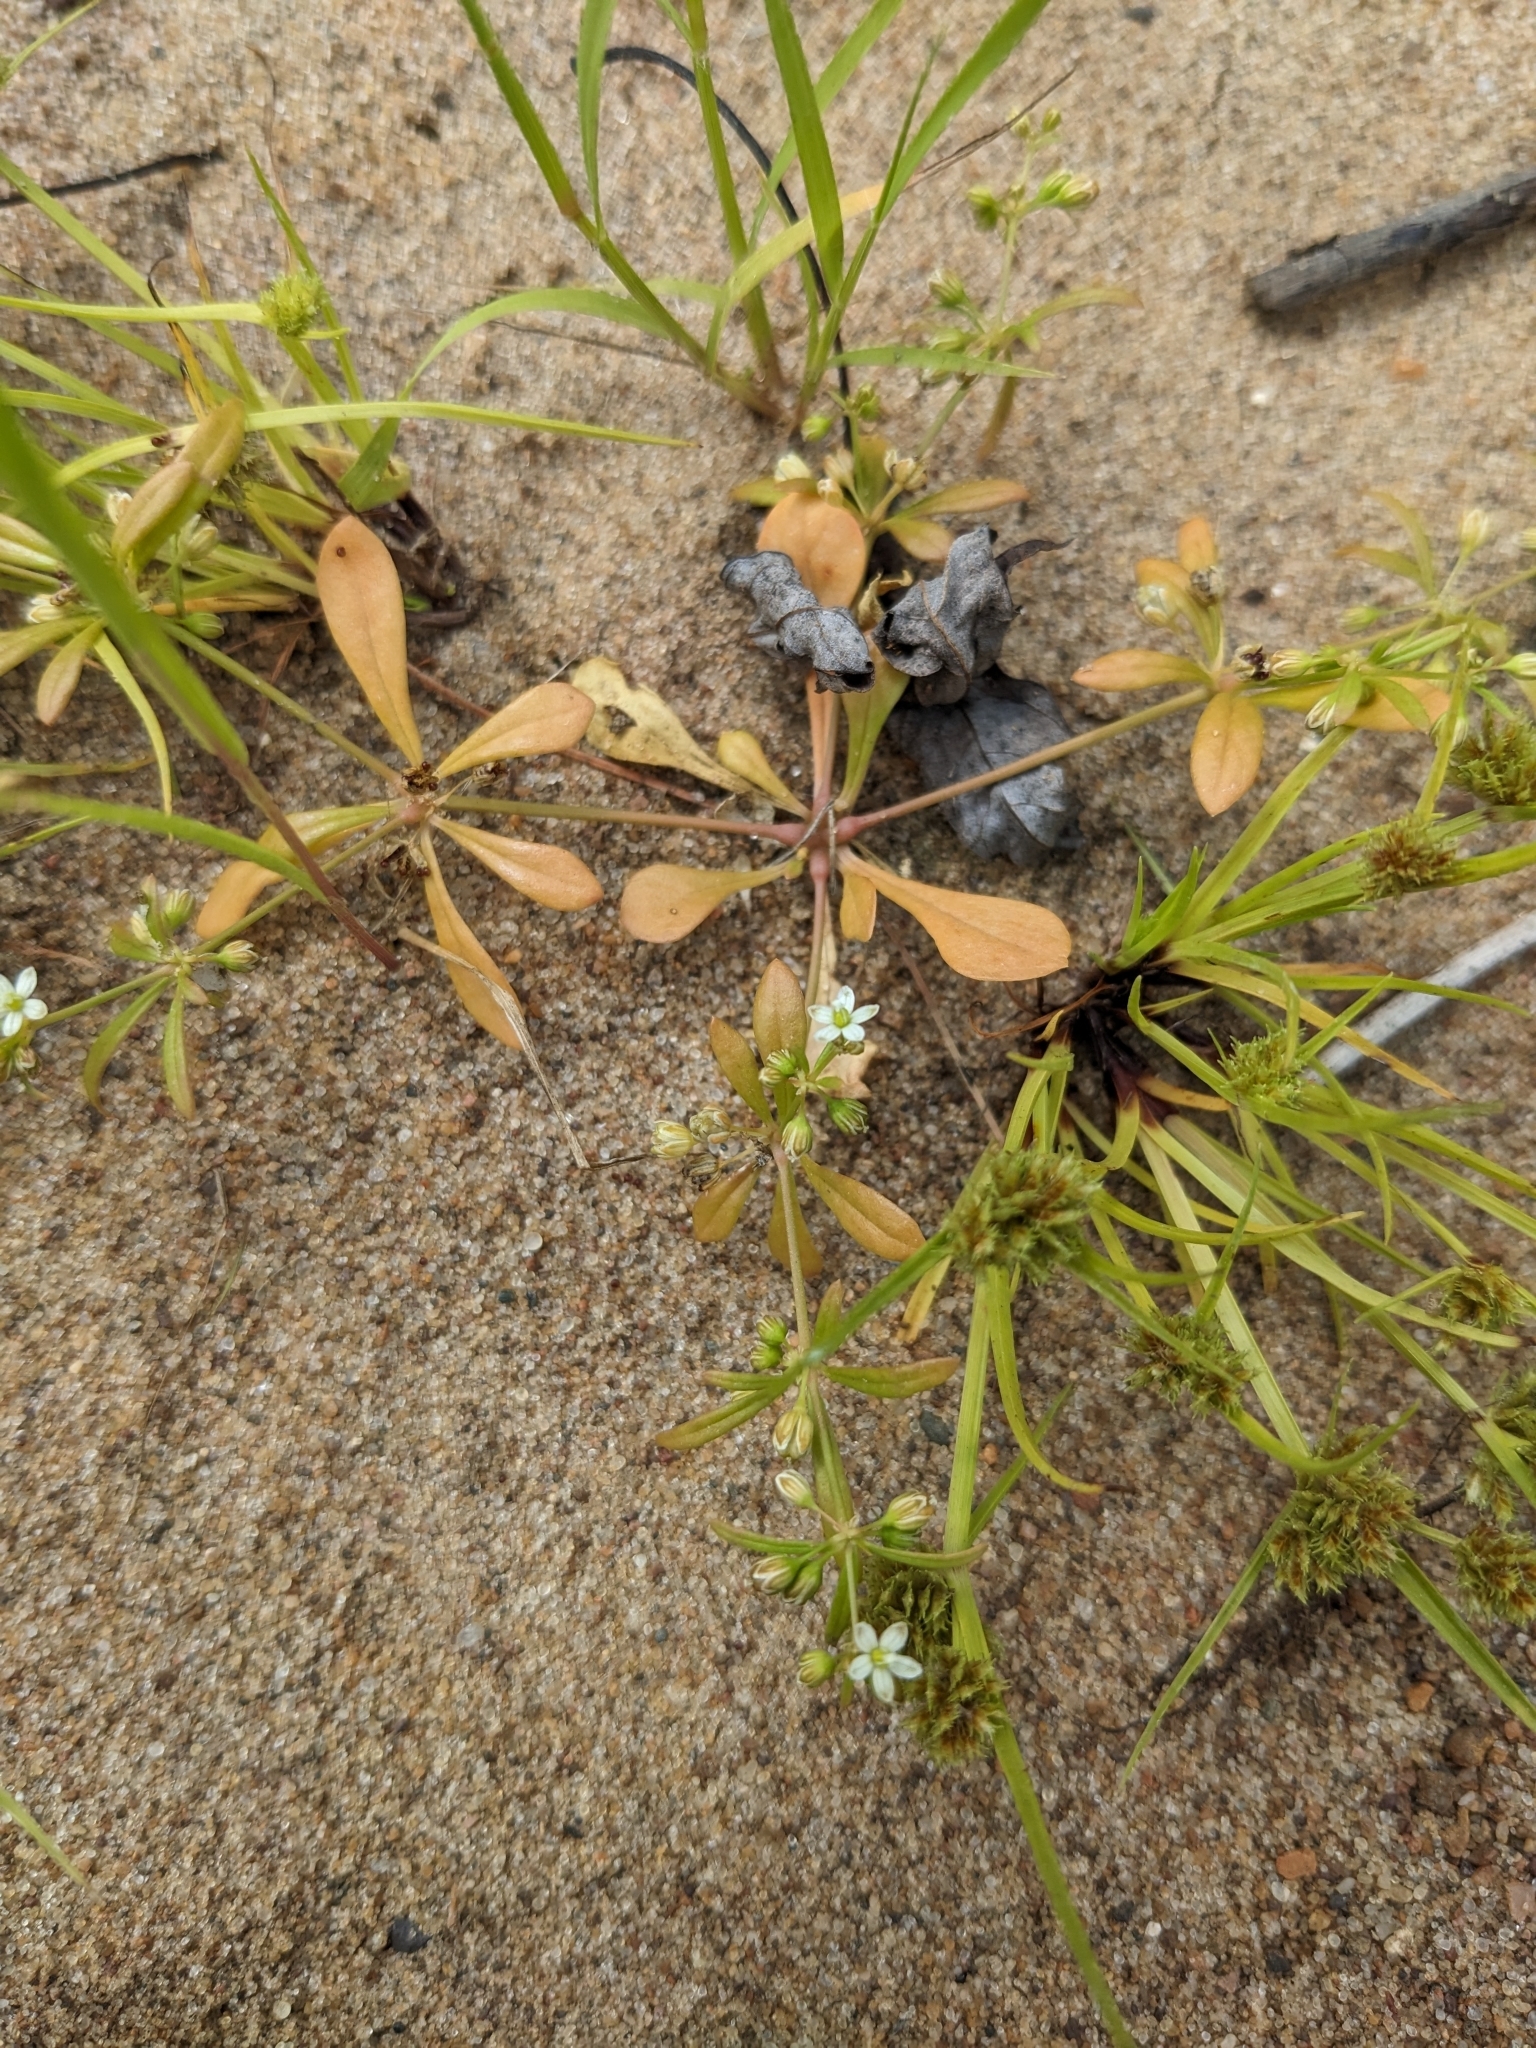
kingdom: Plantae
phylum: Tracheophyta
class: Magnoliopsida
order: Caryophyllales
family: Molluginaceae
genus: Mollugo
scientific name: Mollugo verticillata
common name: Green carpetweed
